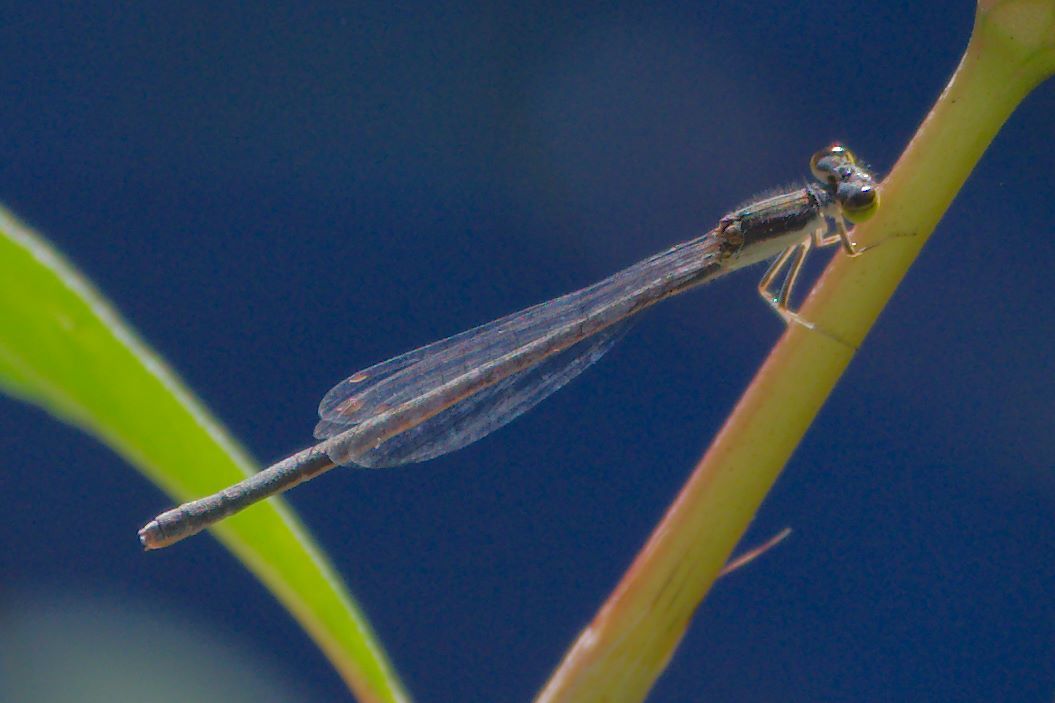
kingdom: Animalia
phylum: Arthropoda
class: Insecta
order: Odonata
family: Coenagrionidae
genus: Ischnura
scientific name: Ischnura posita
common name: Fragile forktail
